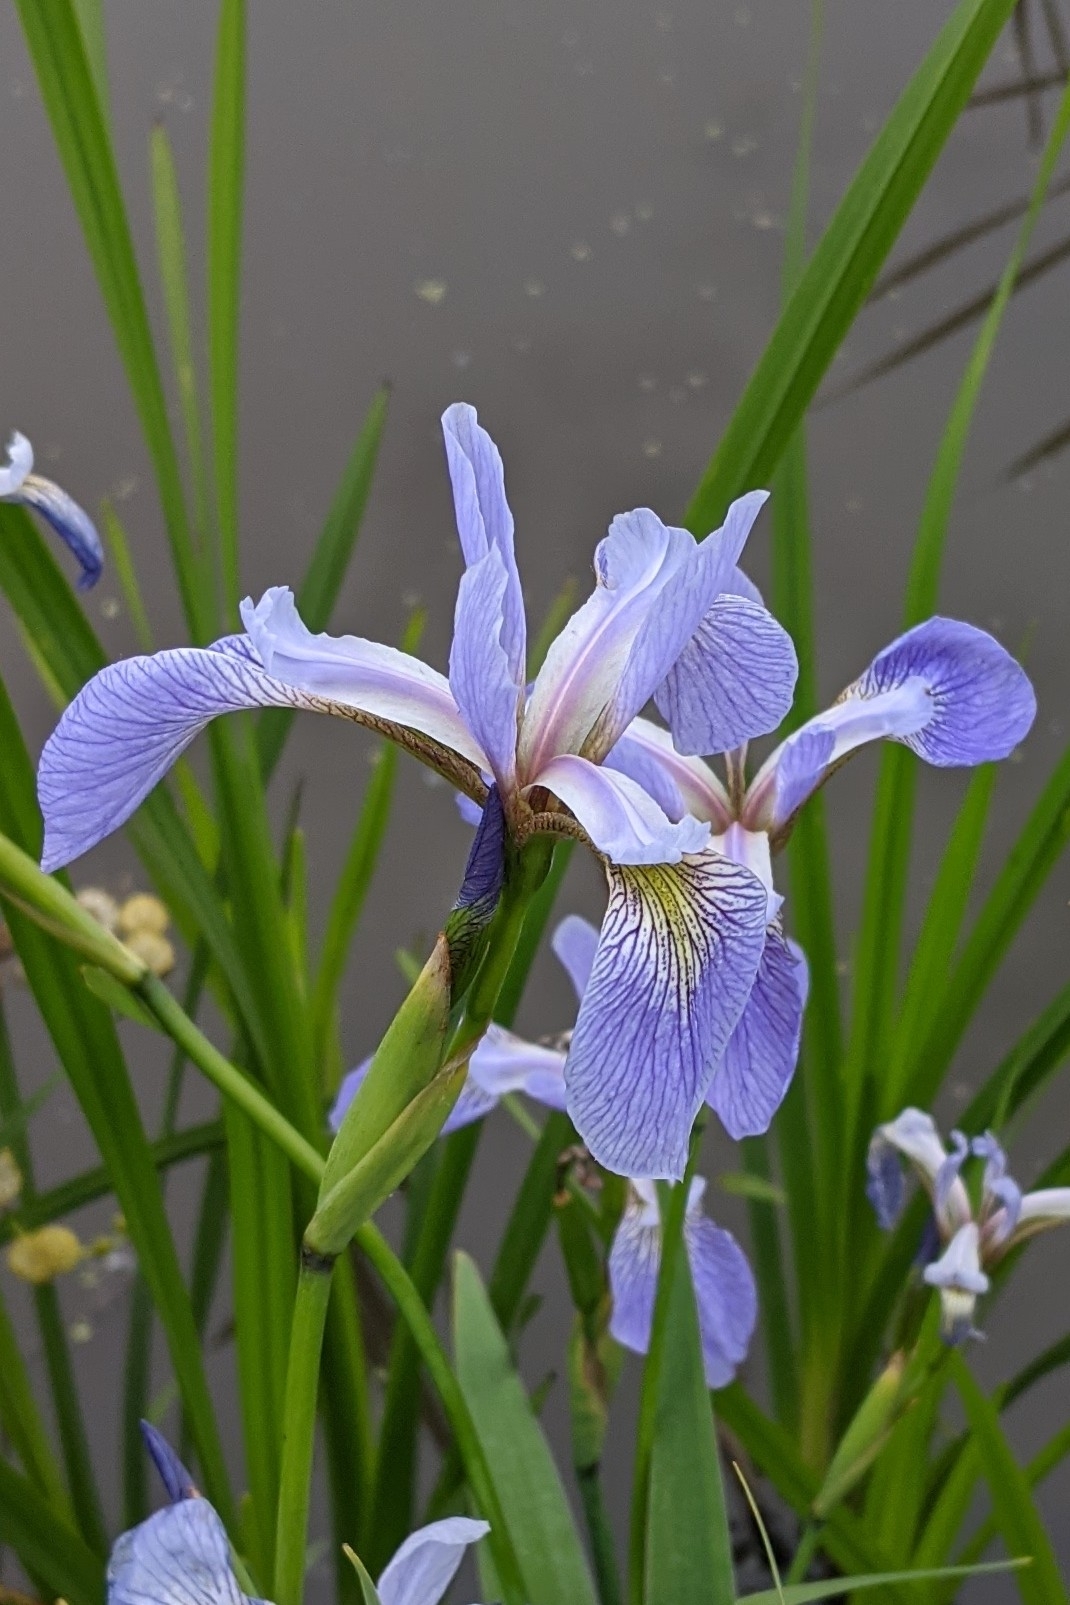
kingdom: Plantae
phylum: Tracheophyta
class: Liliopsida
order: Asparagales
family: Iridaceae
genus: Iris
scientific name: Iris versicolor
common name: Purple iris
